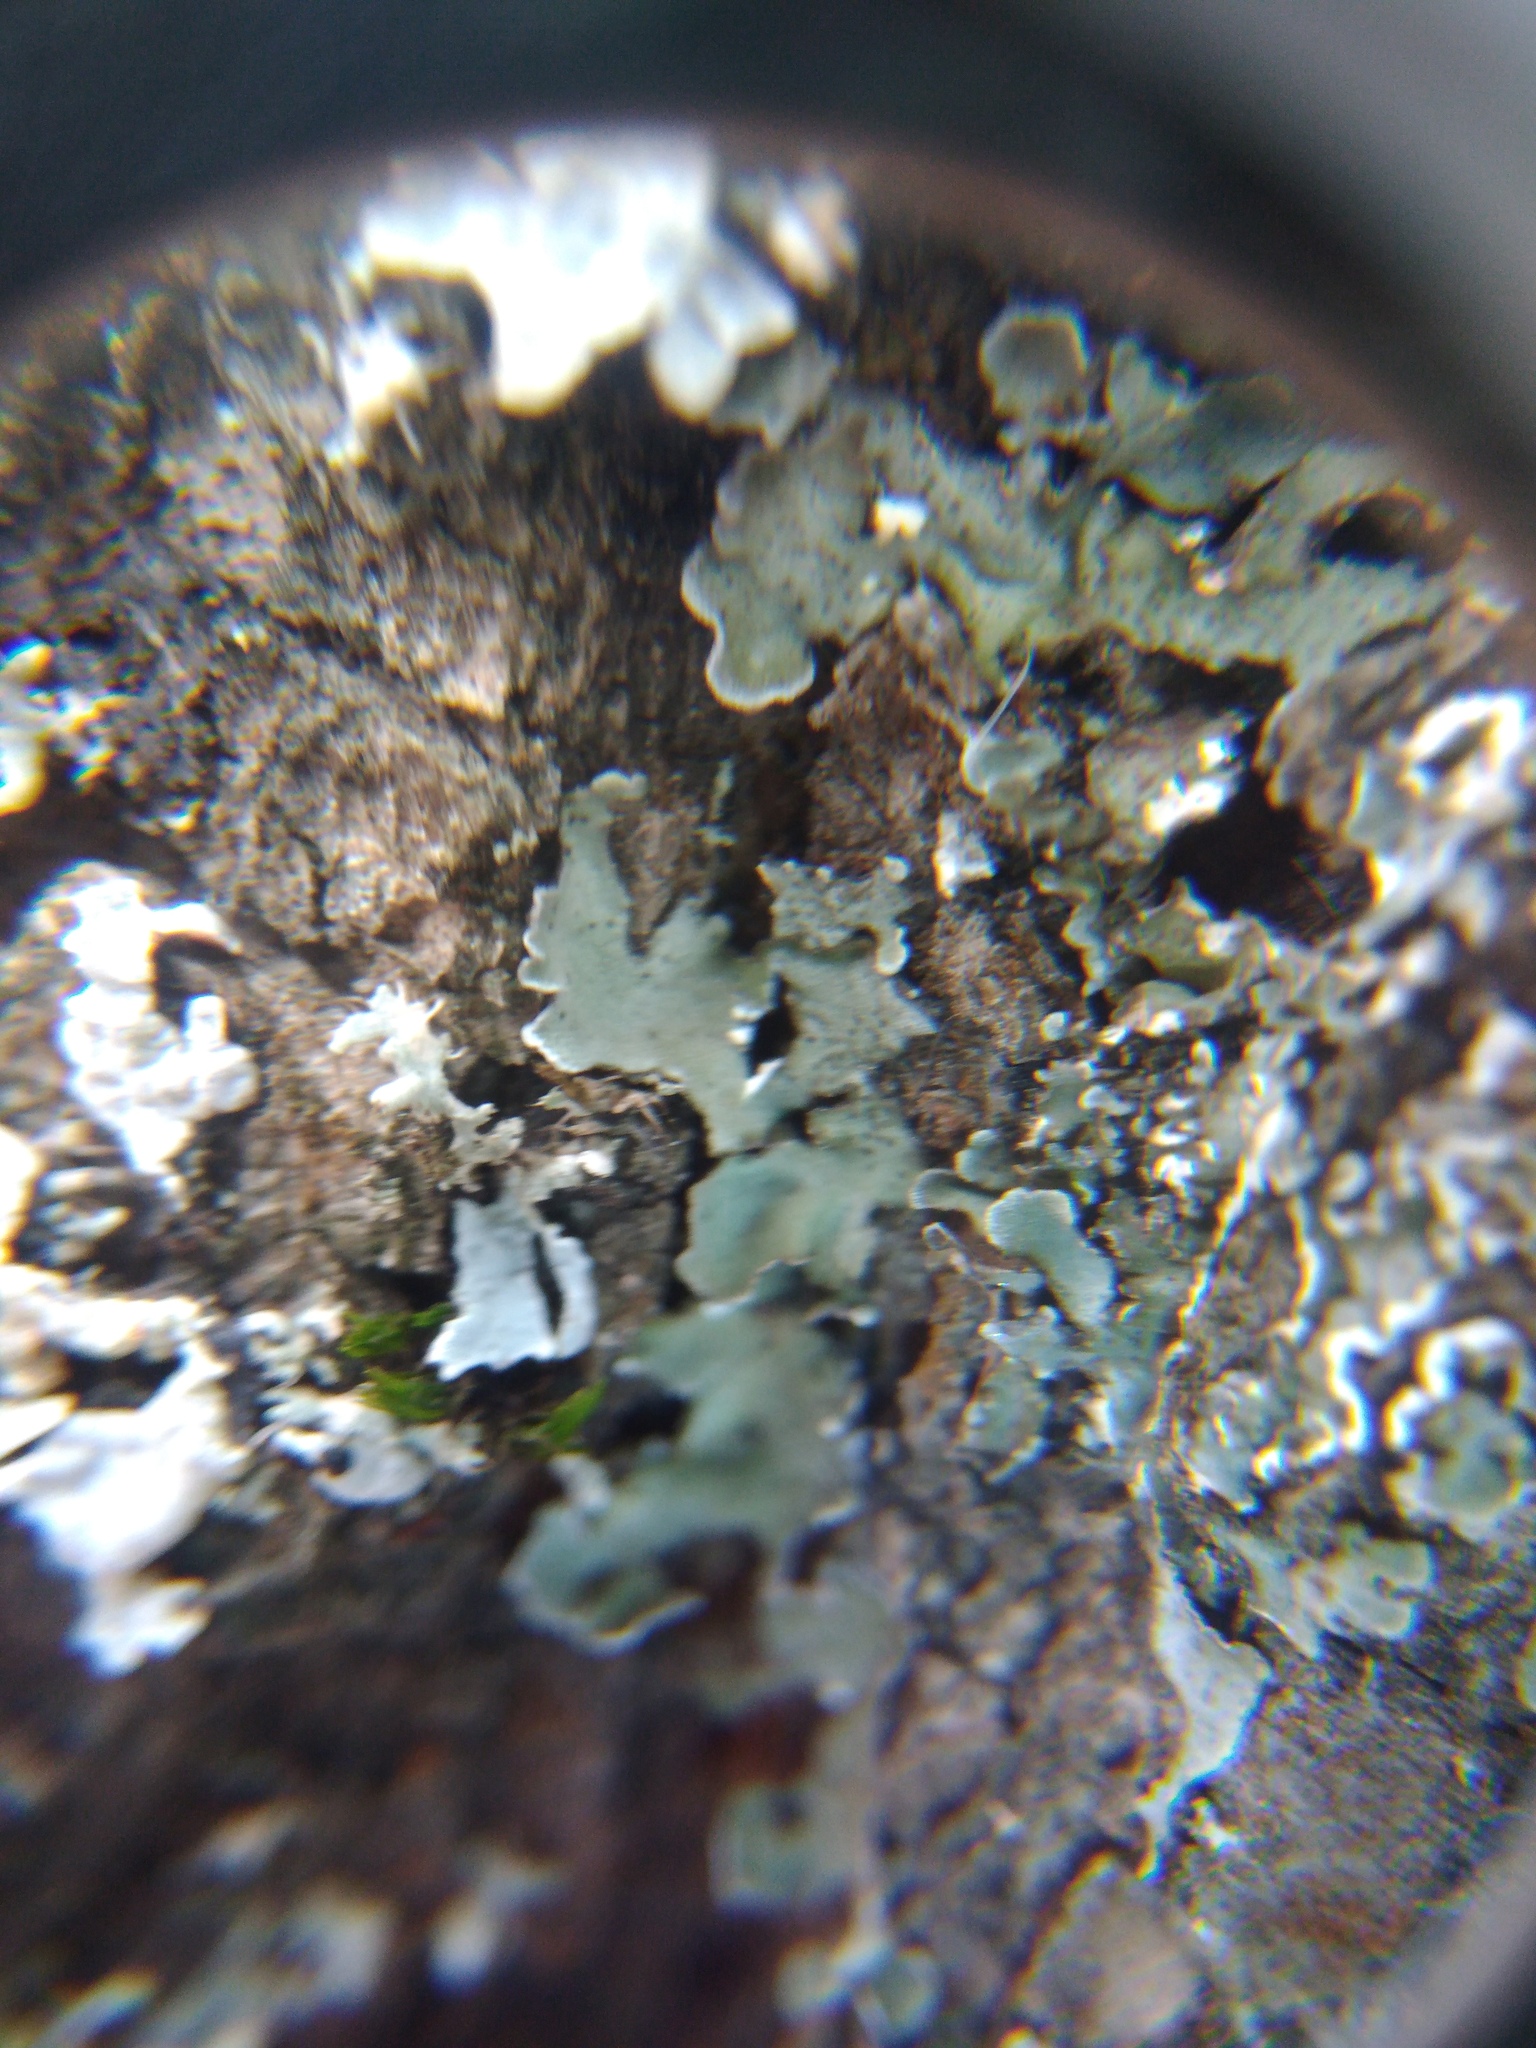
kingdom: Fungi
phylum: Ascomycota
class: Lecanoromycetes
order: Lecanorales
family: Parmeliaceae
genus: Pleurosticta
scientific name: Pleurosticta acetabulum
